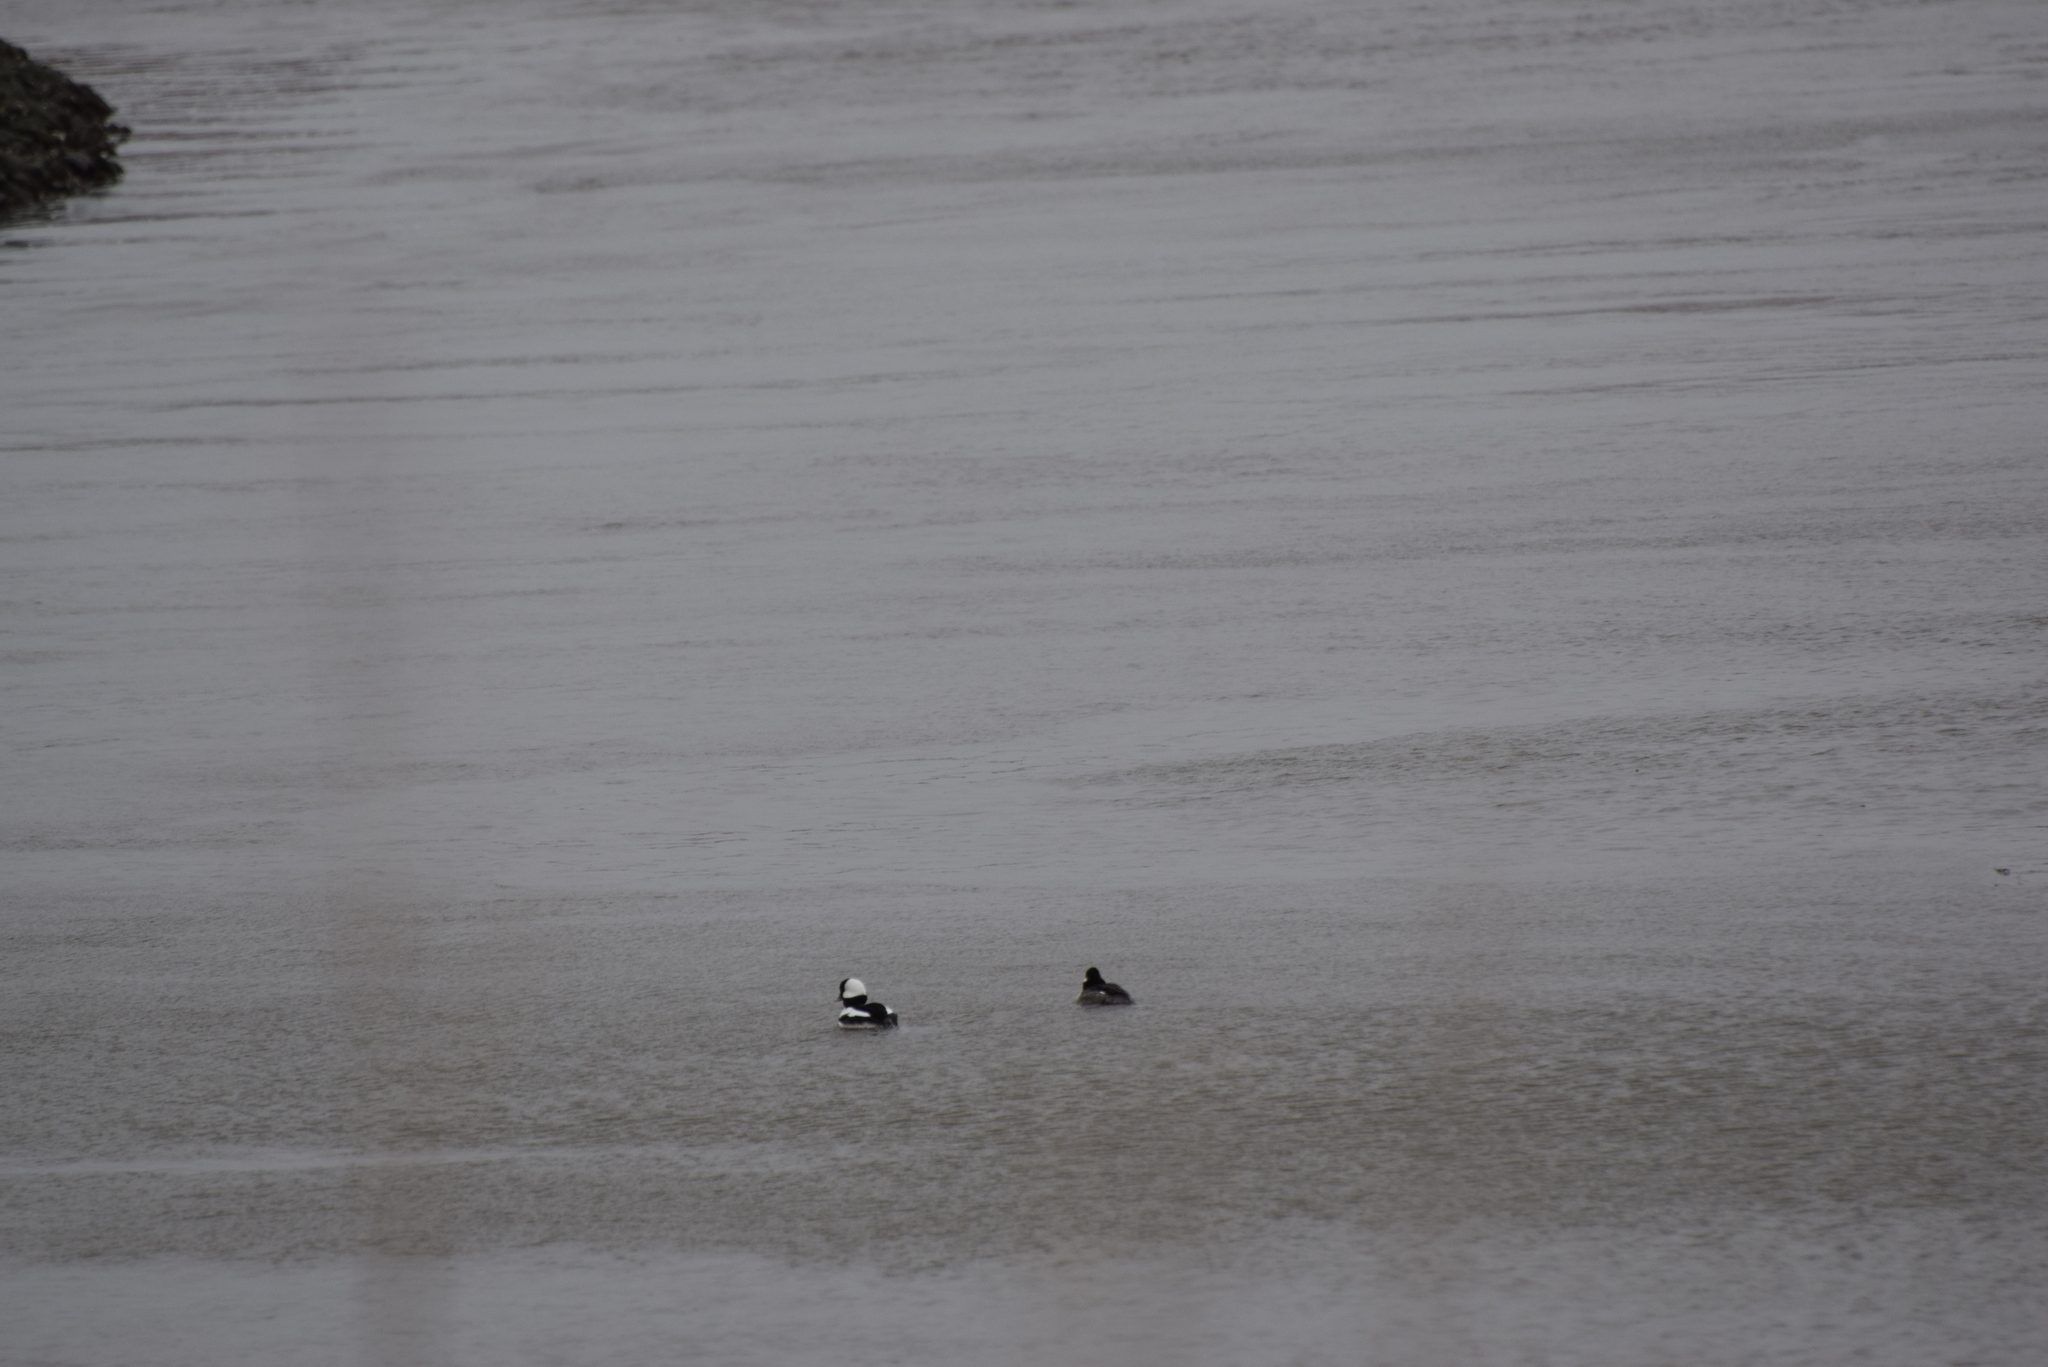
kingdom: Animalia
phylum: Chordata
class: Aves
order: Anseriformes
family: Anatidae
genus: Bucephala
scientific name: Bucephala albeola
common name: Bufflehead
